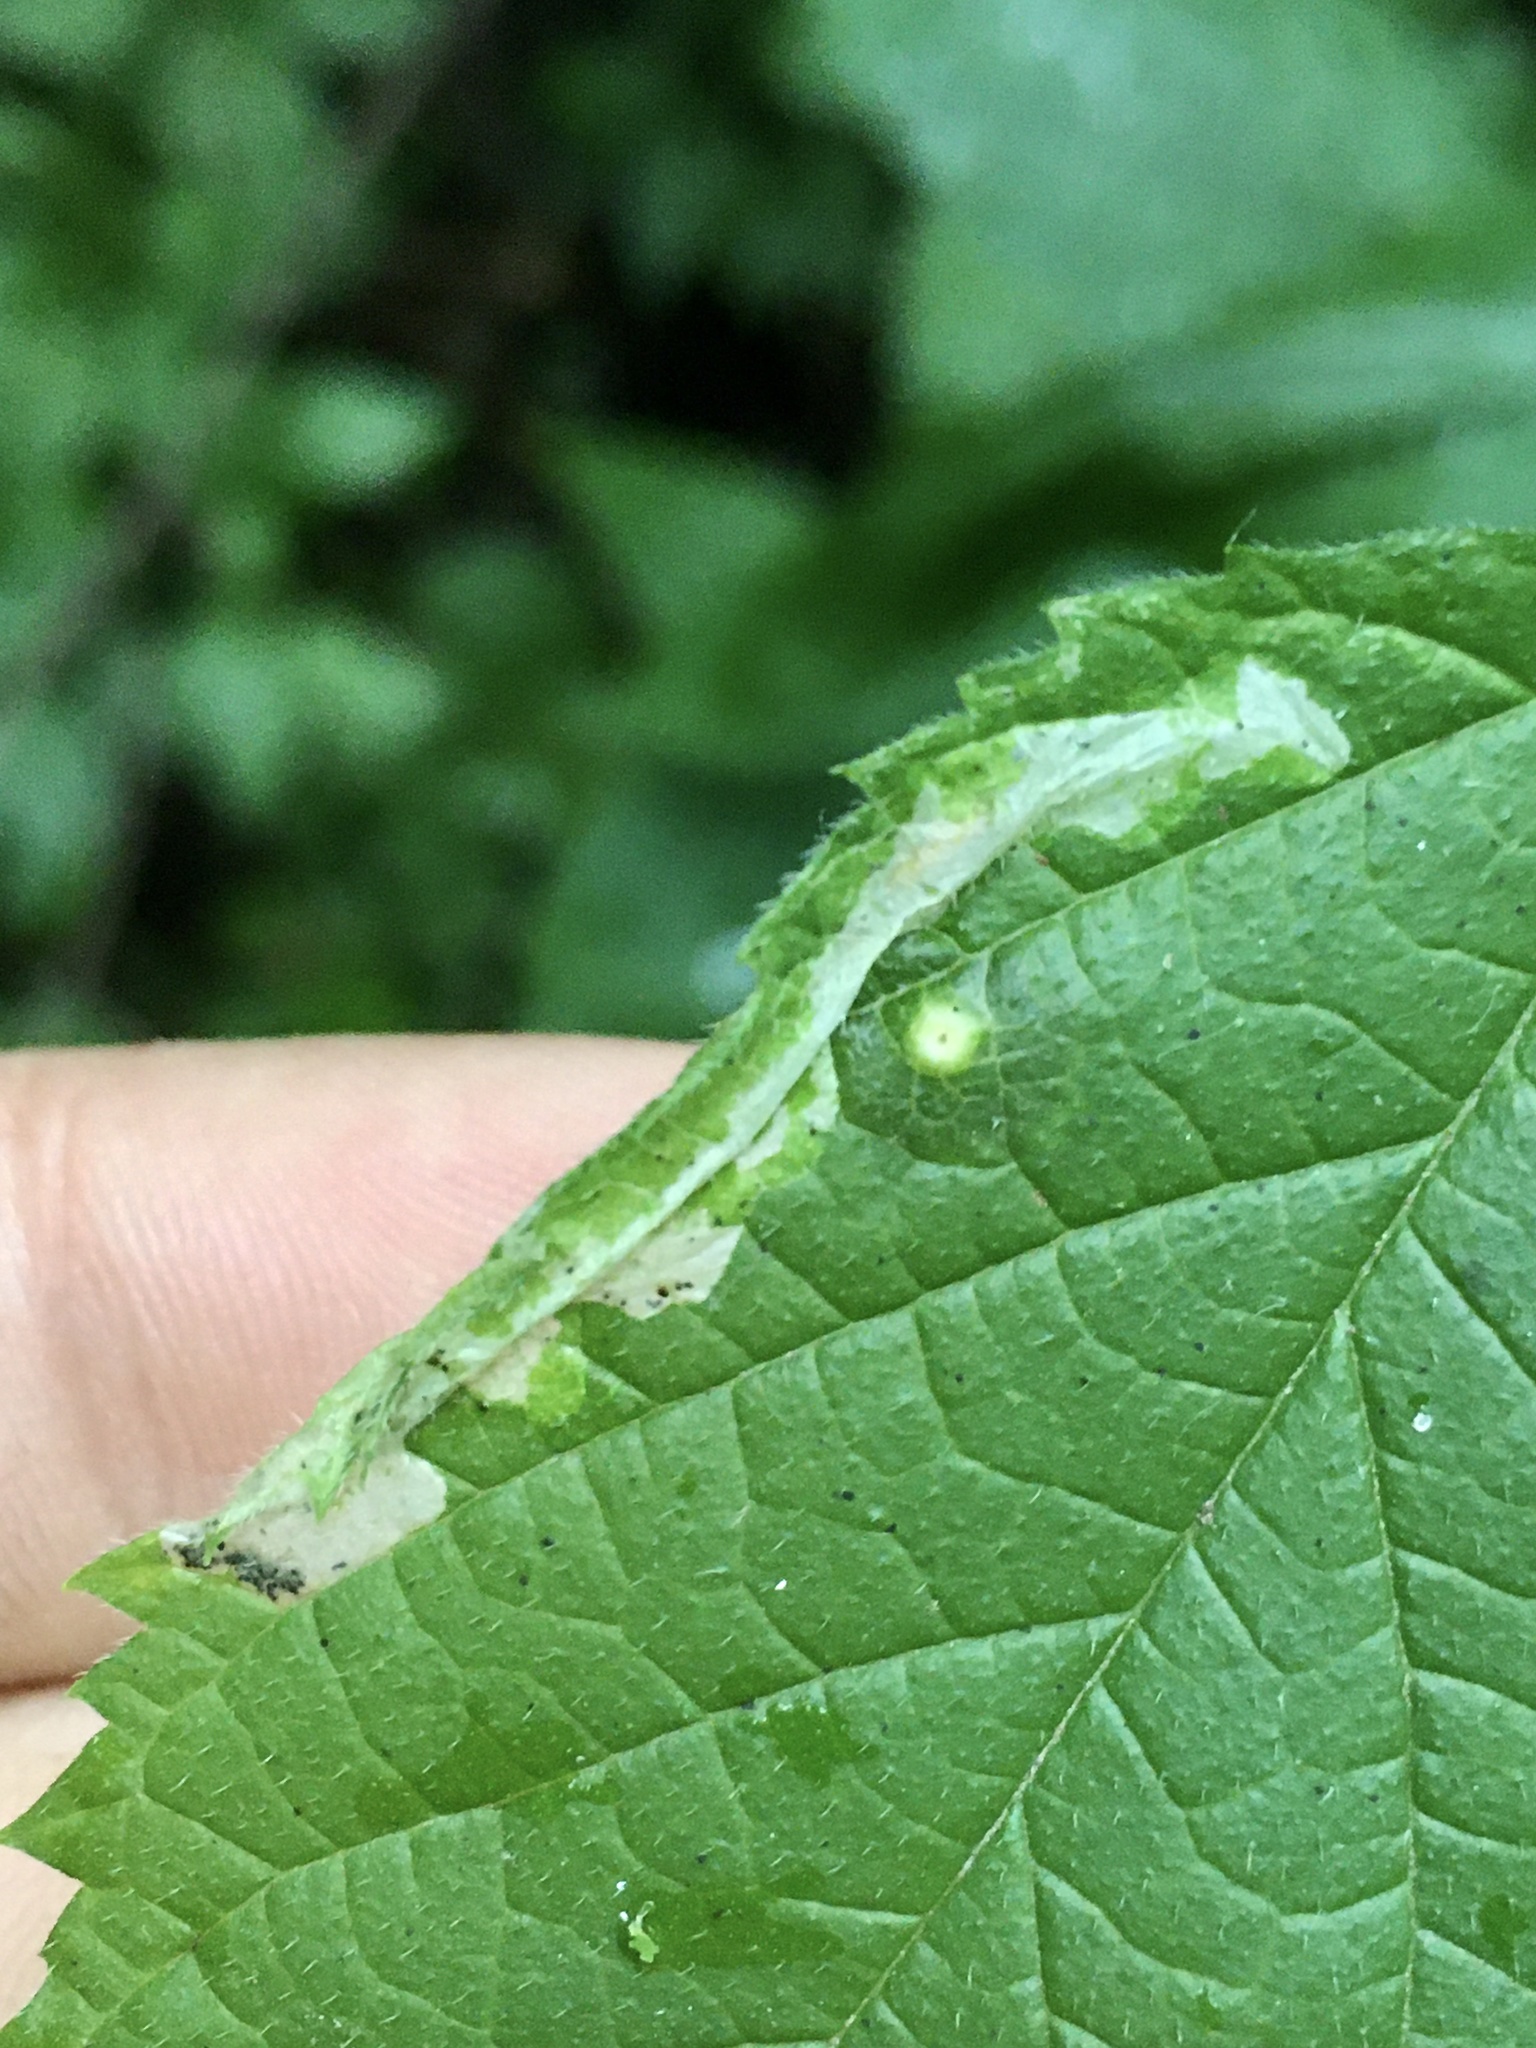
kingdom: Animalia
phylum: Arthropoda
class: Insecta
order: Lepidoptera
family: Gracillariidae
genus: Phyllonorycter
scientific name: Phyllonorycter celtisella
